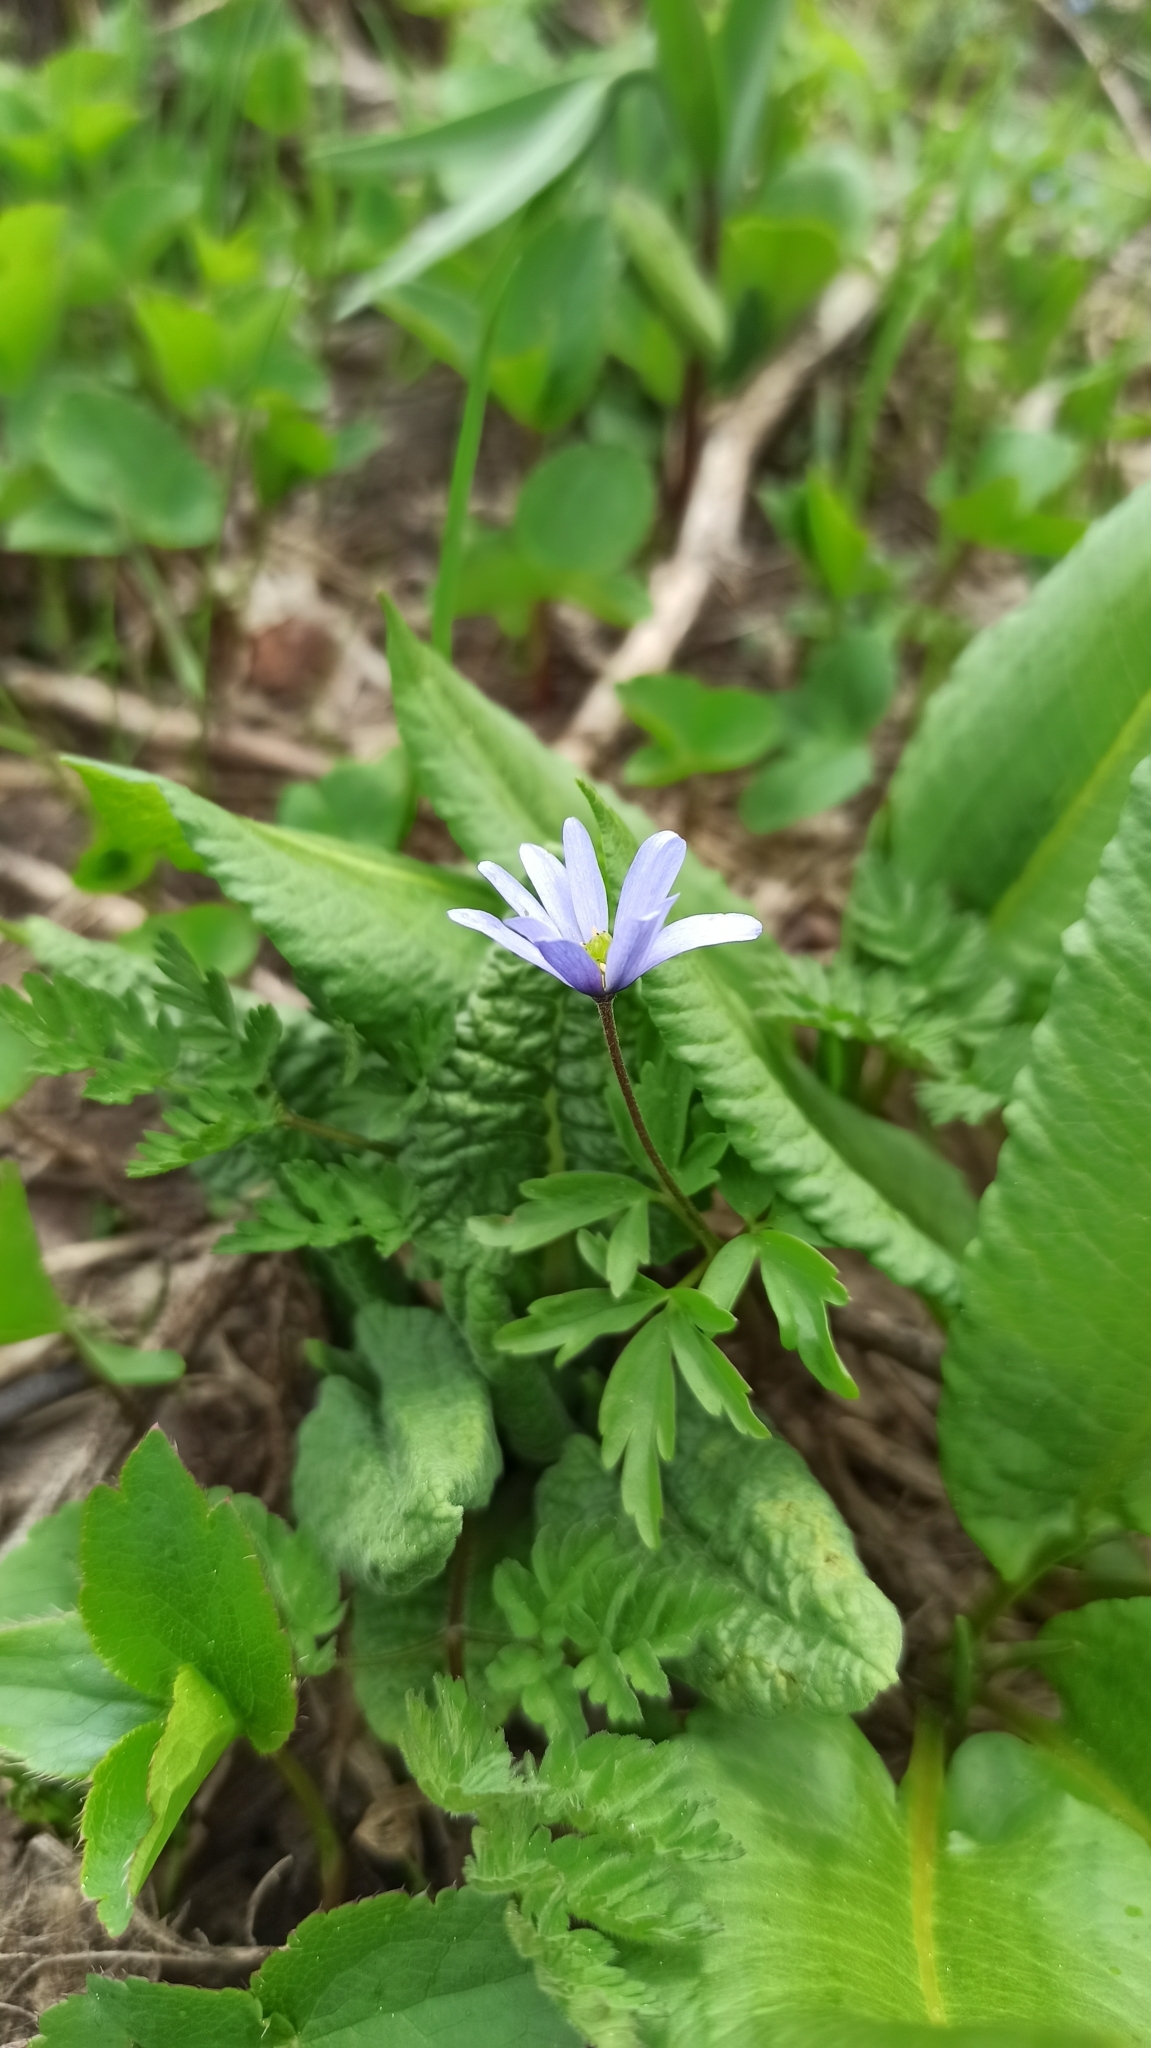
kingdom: Plantae
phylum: Tracheophyta
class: Magnoliopsida
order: Ranunculales
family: Ranunculaceae
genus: Anemone
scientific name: Anemone caucasica
